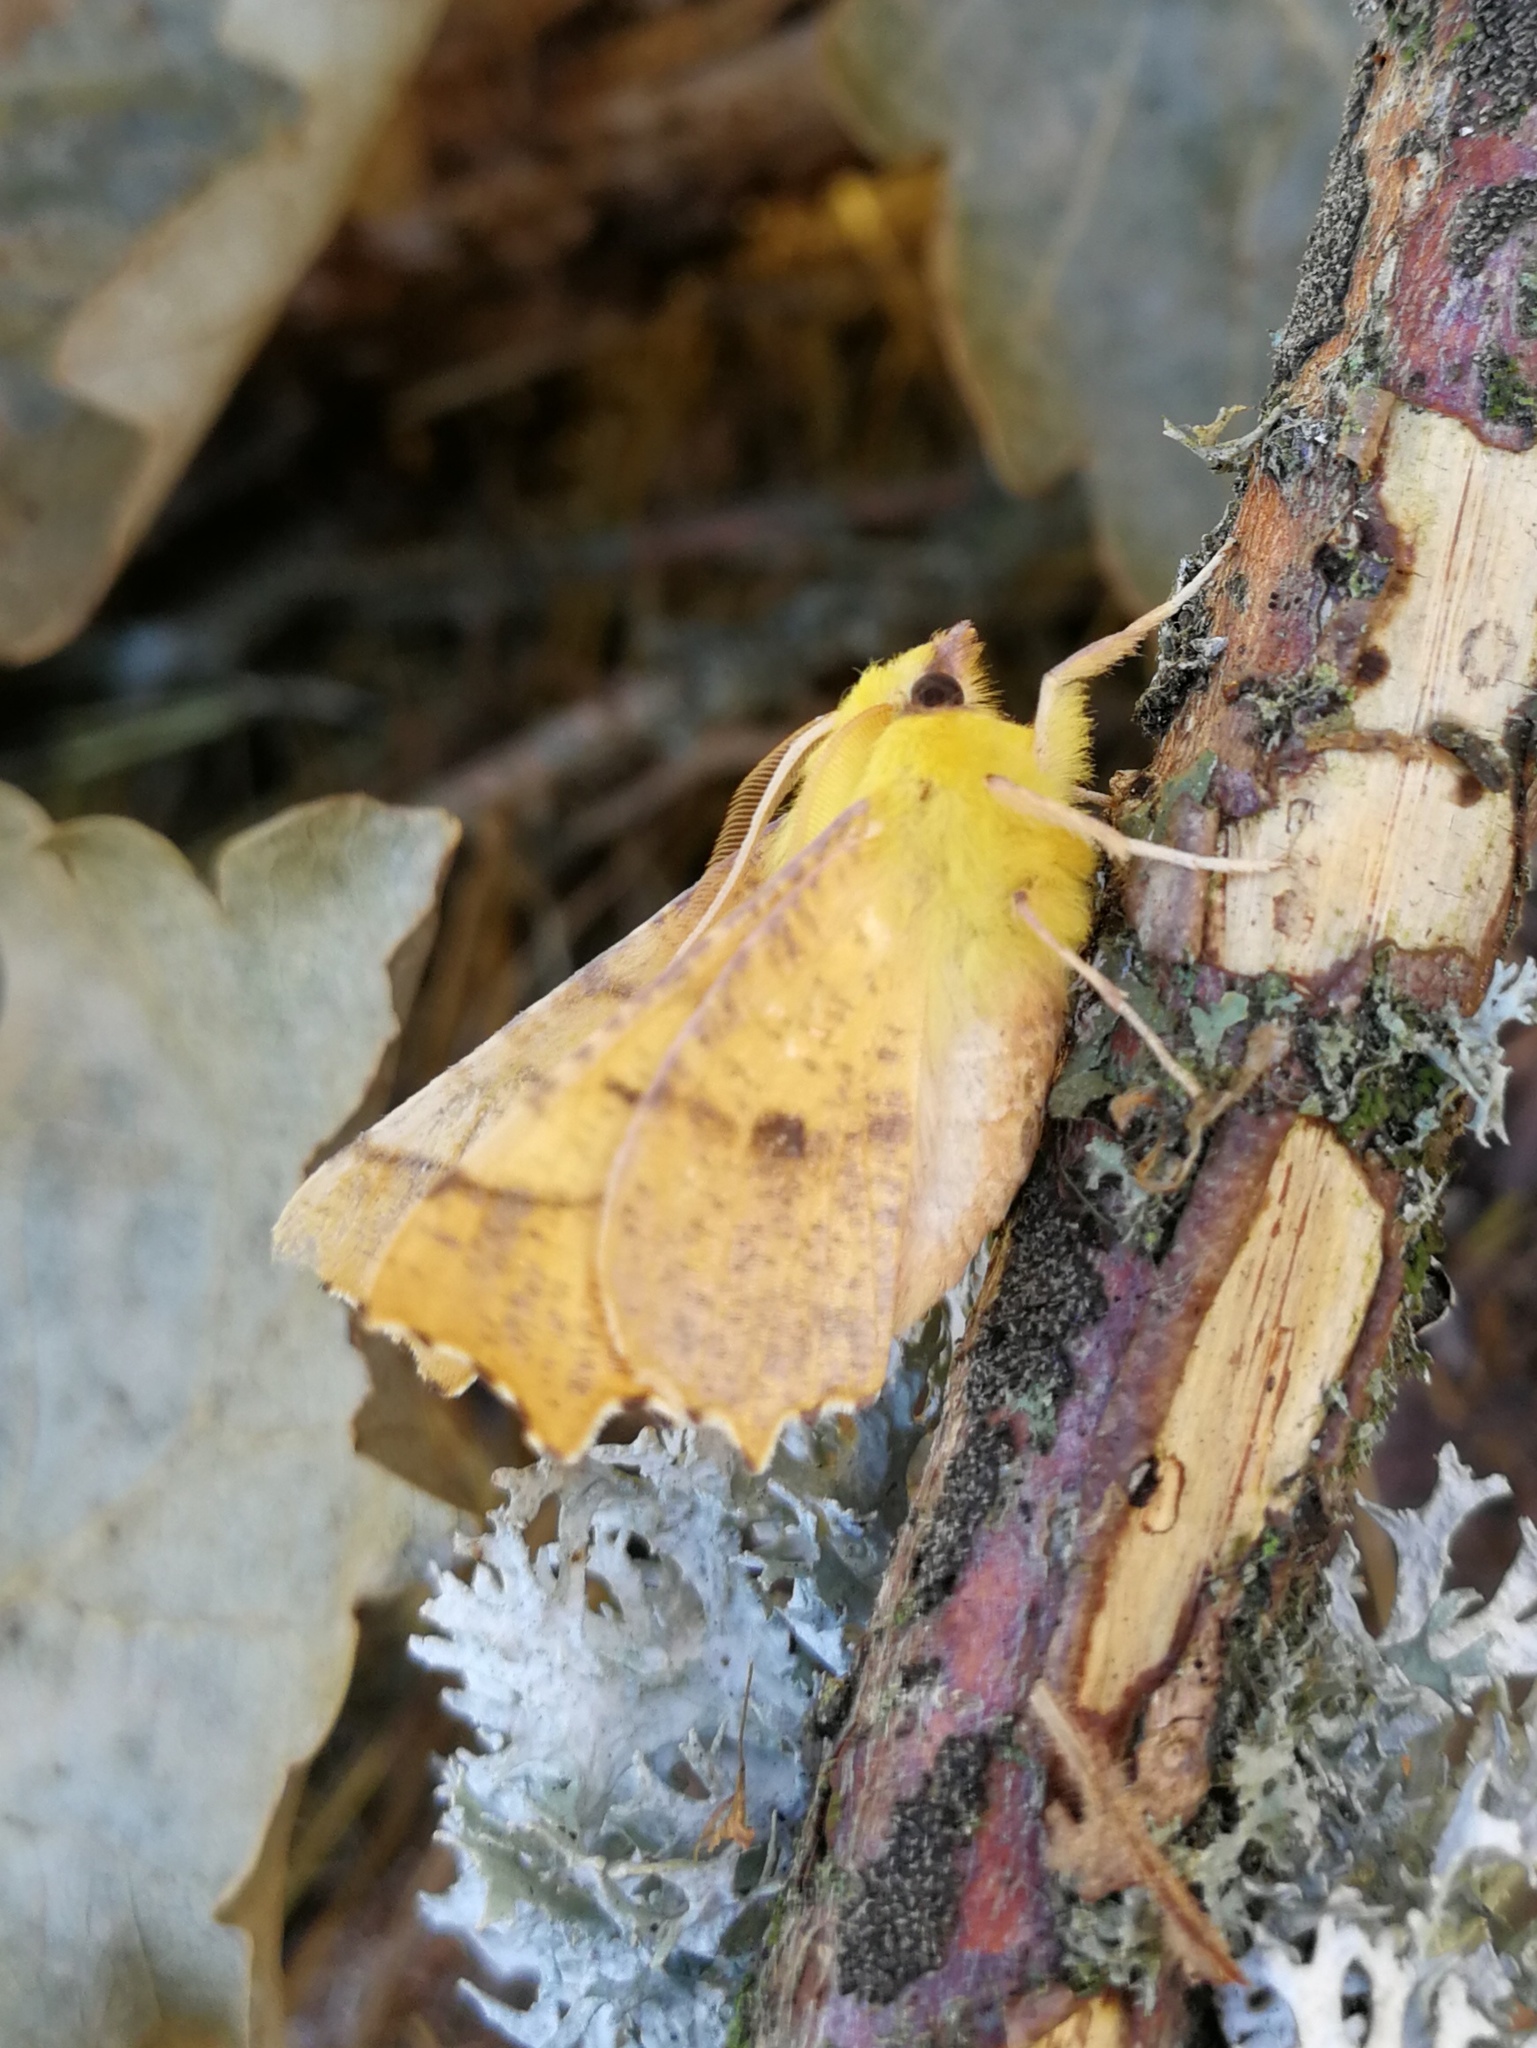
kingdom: Animalia
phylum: Arthropoda
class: Insecta
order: Lepidoptera
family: Geometridae
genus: Ennomos
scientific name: Ennomos alniaria
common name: Canary-shouldered thorn
